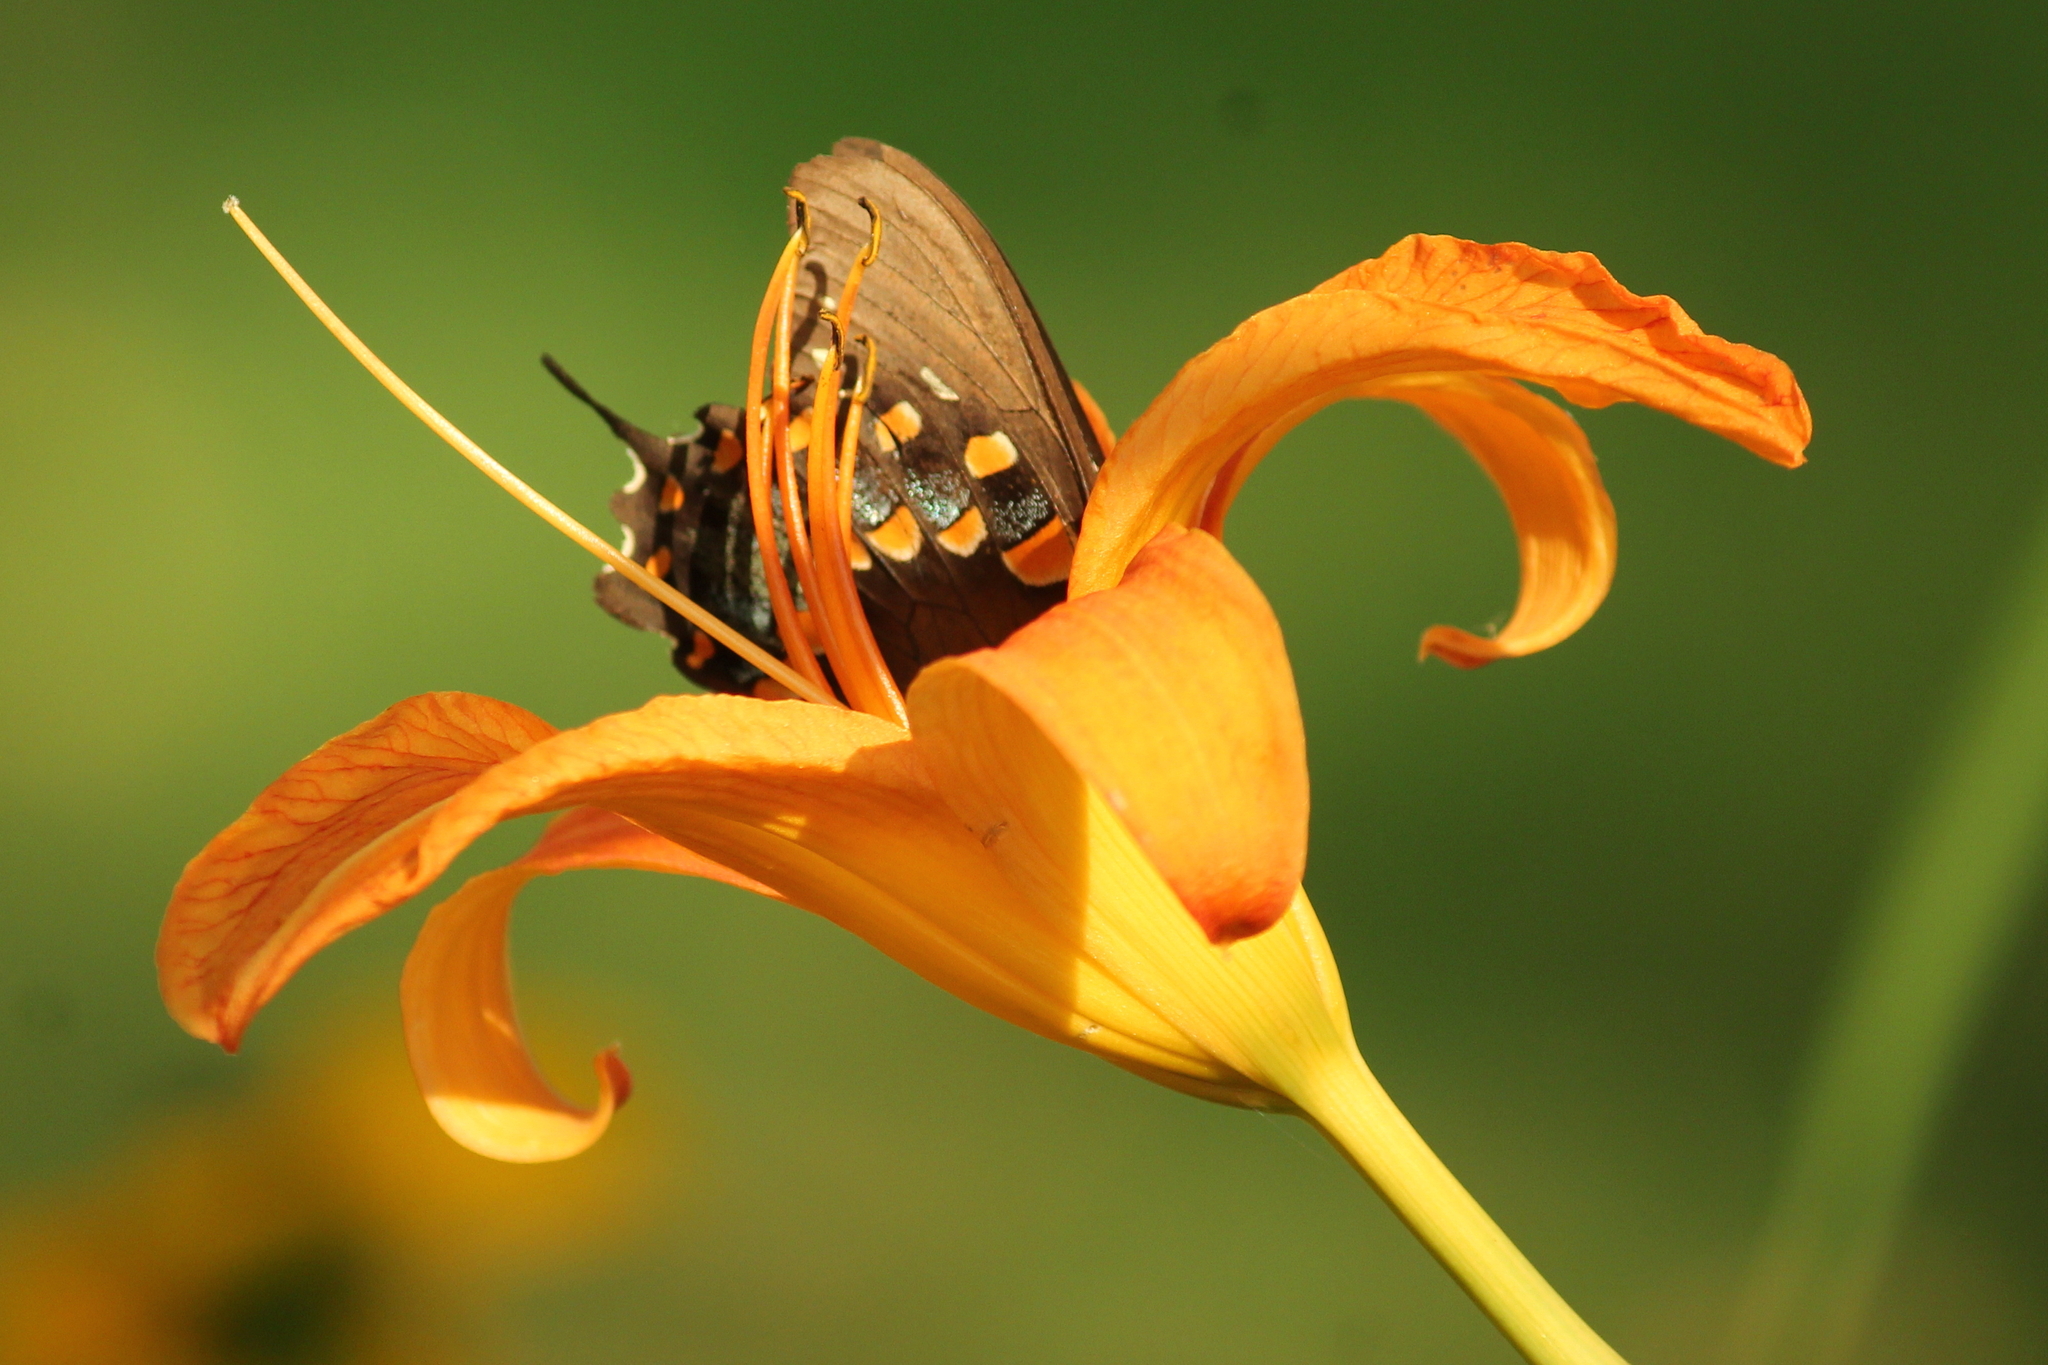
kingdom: Animalia
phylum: Arthropoda
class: Insecta
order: Lepidoptera
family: Papilionidae
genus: Papilio
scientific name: Papilio troilus
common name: Spicebush swallowtail
